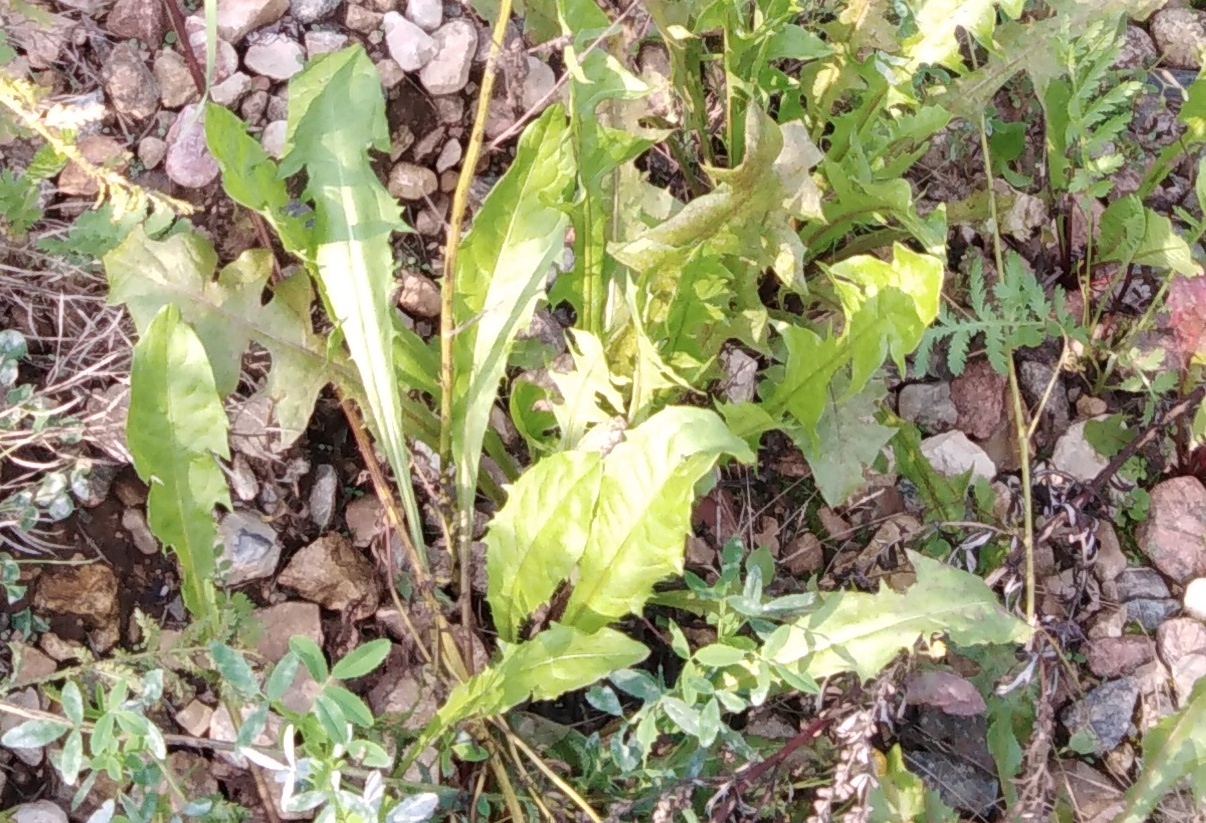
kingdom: Plantae
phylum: Tracheophyta
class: Magnoliopsida
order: Asterales
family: Asteraceae
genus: Taraxacum
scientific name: Taraxacum officinale
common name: Common dandelion
